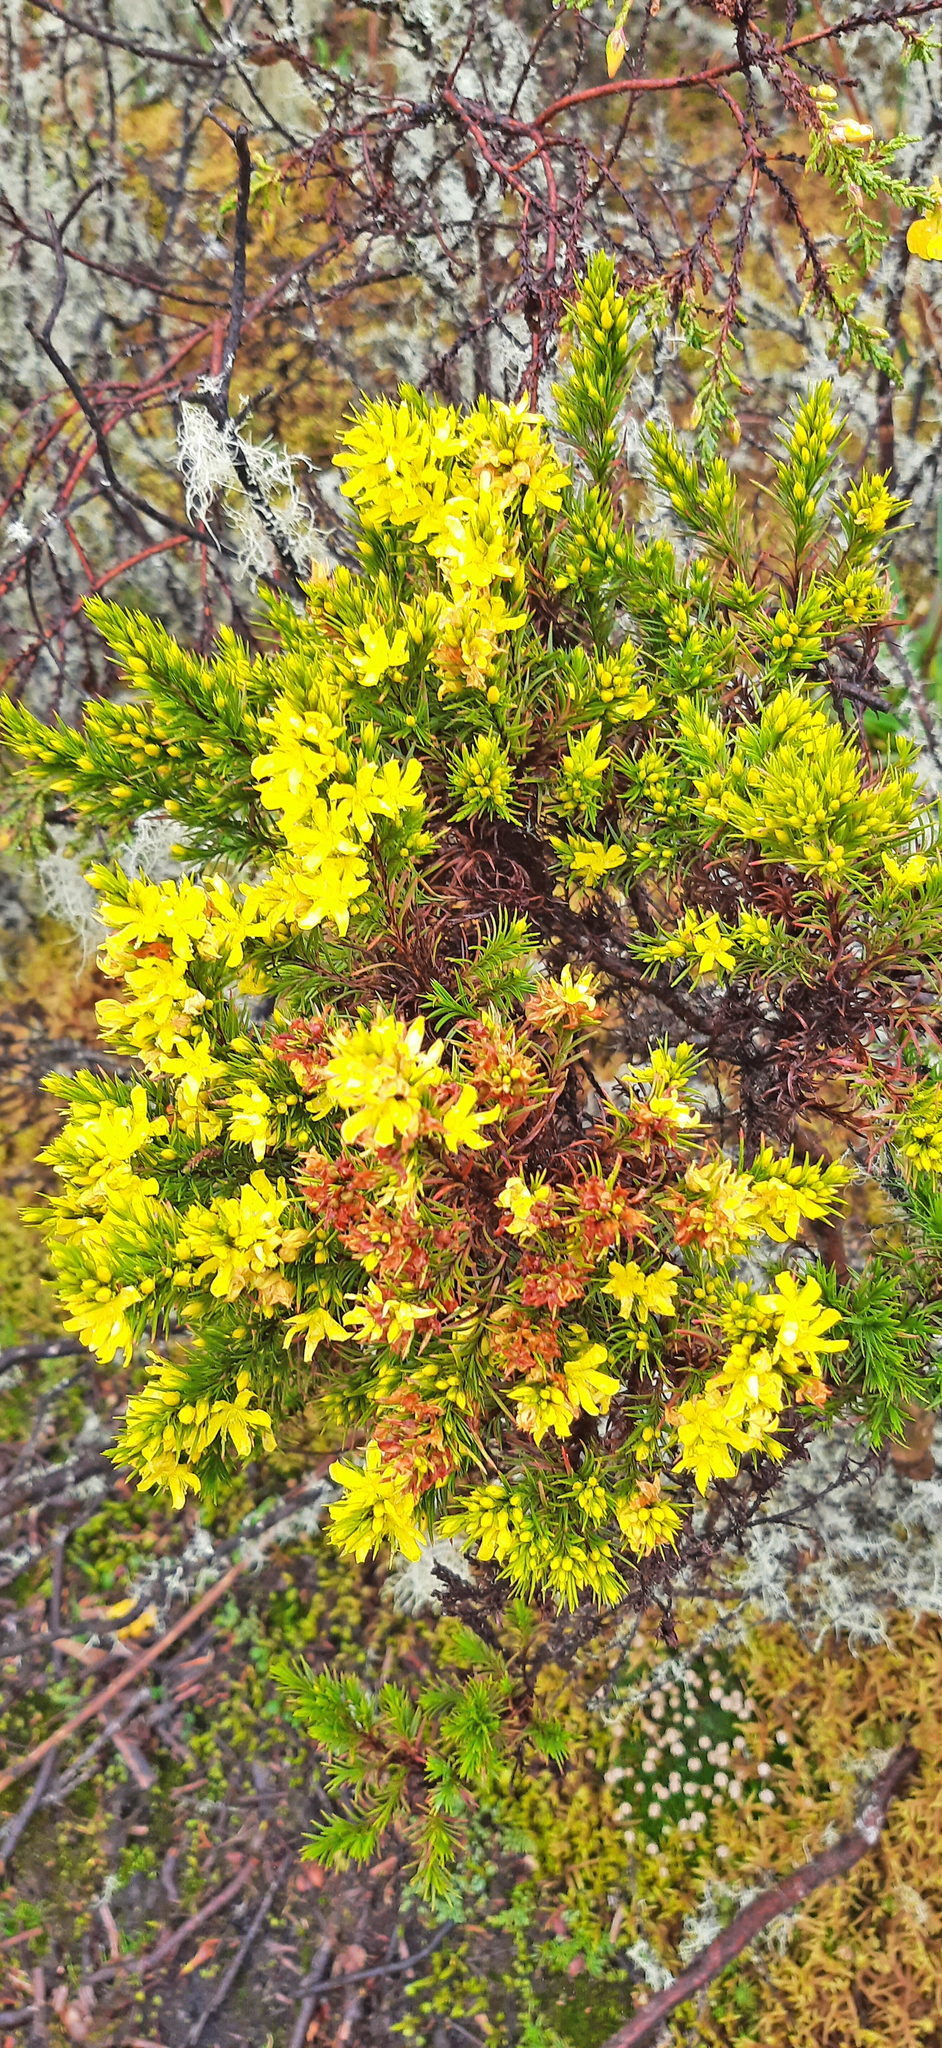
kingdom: Plantae
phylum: Tracheophyta
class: Magnoliopsida
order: Malpighiales
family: Hypericaceae
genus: Hypericum
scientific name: Hypericum juniperinum
